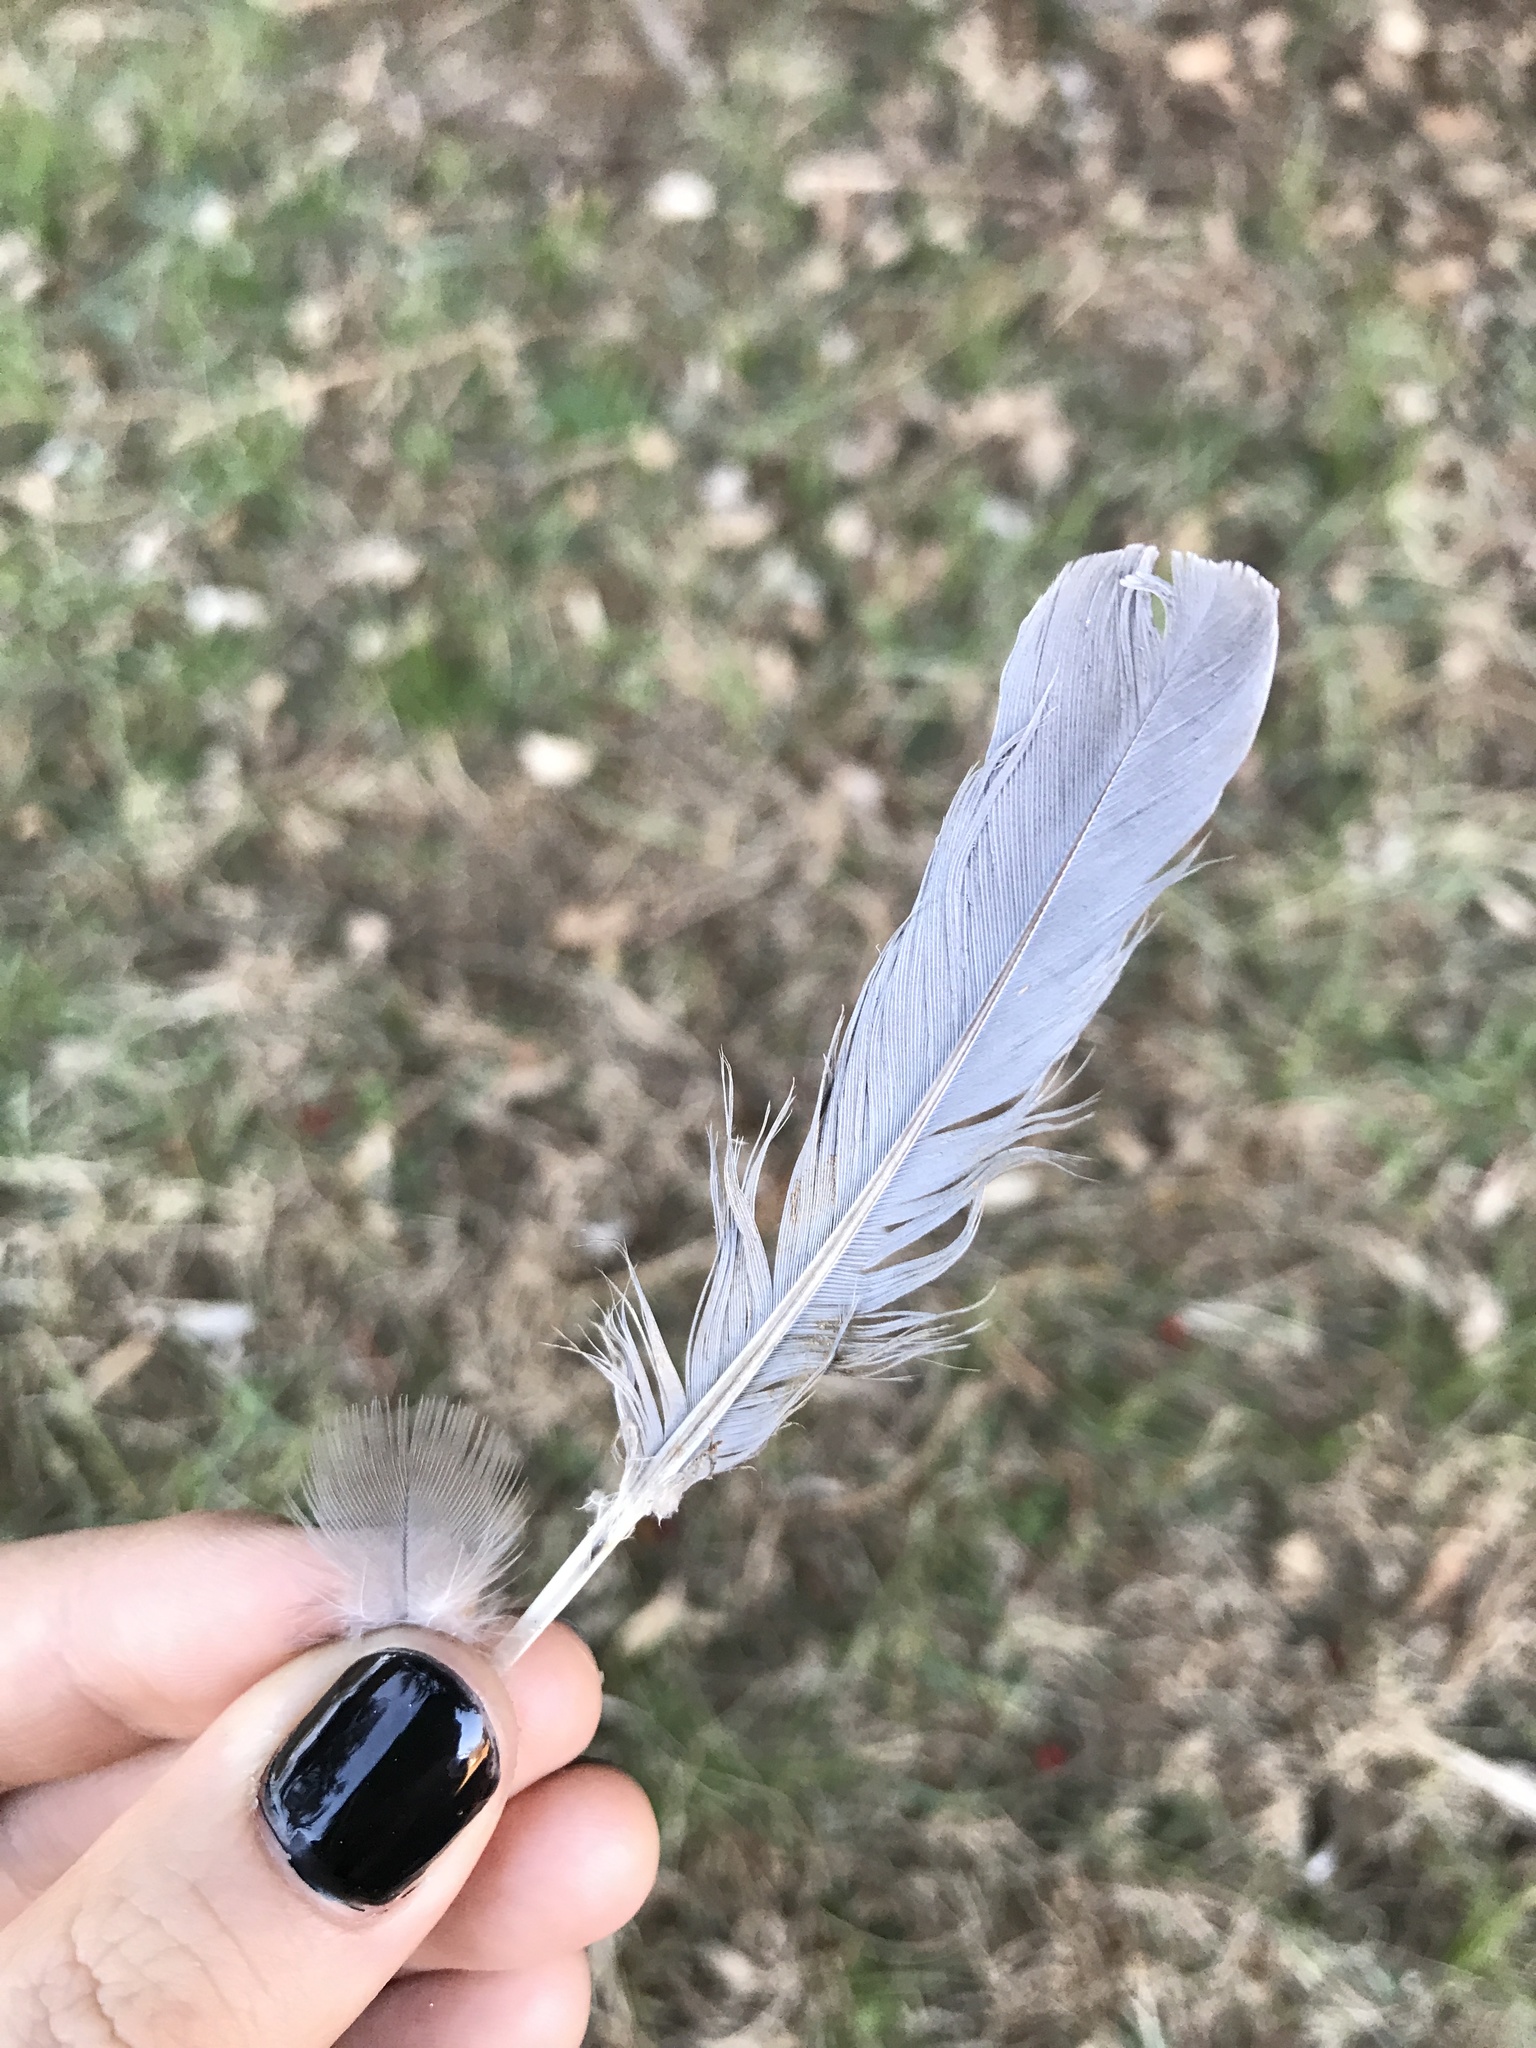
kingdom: Animalia
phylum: Chordata
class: Aves
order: Columbiformes
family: Columbidae
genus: Zenaida
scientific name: Zenaida macroura
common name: Mourning dove
